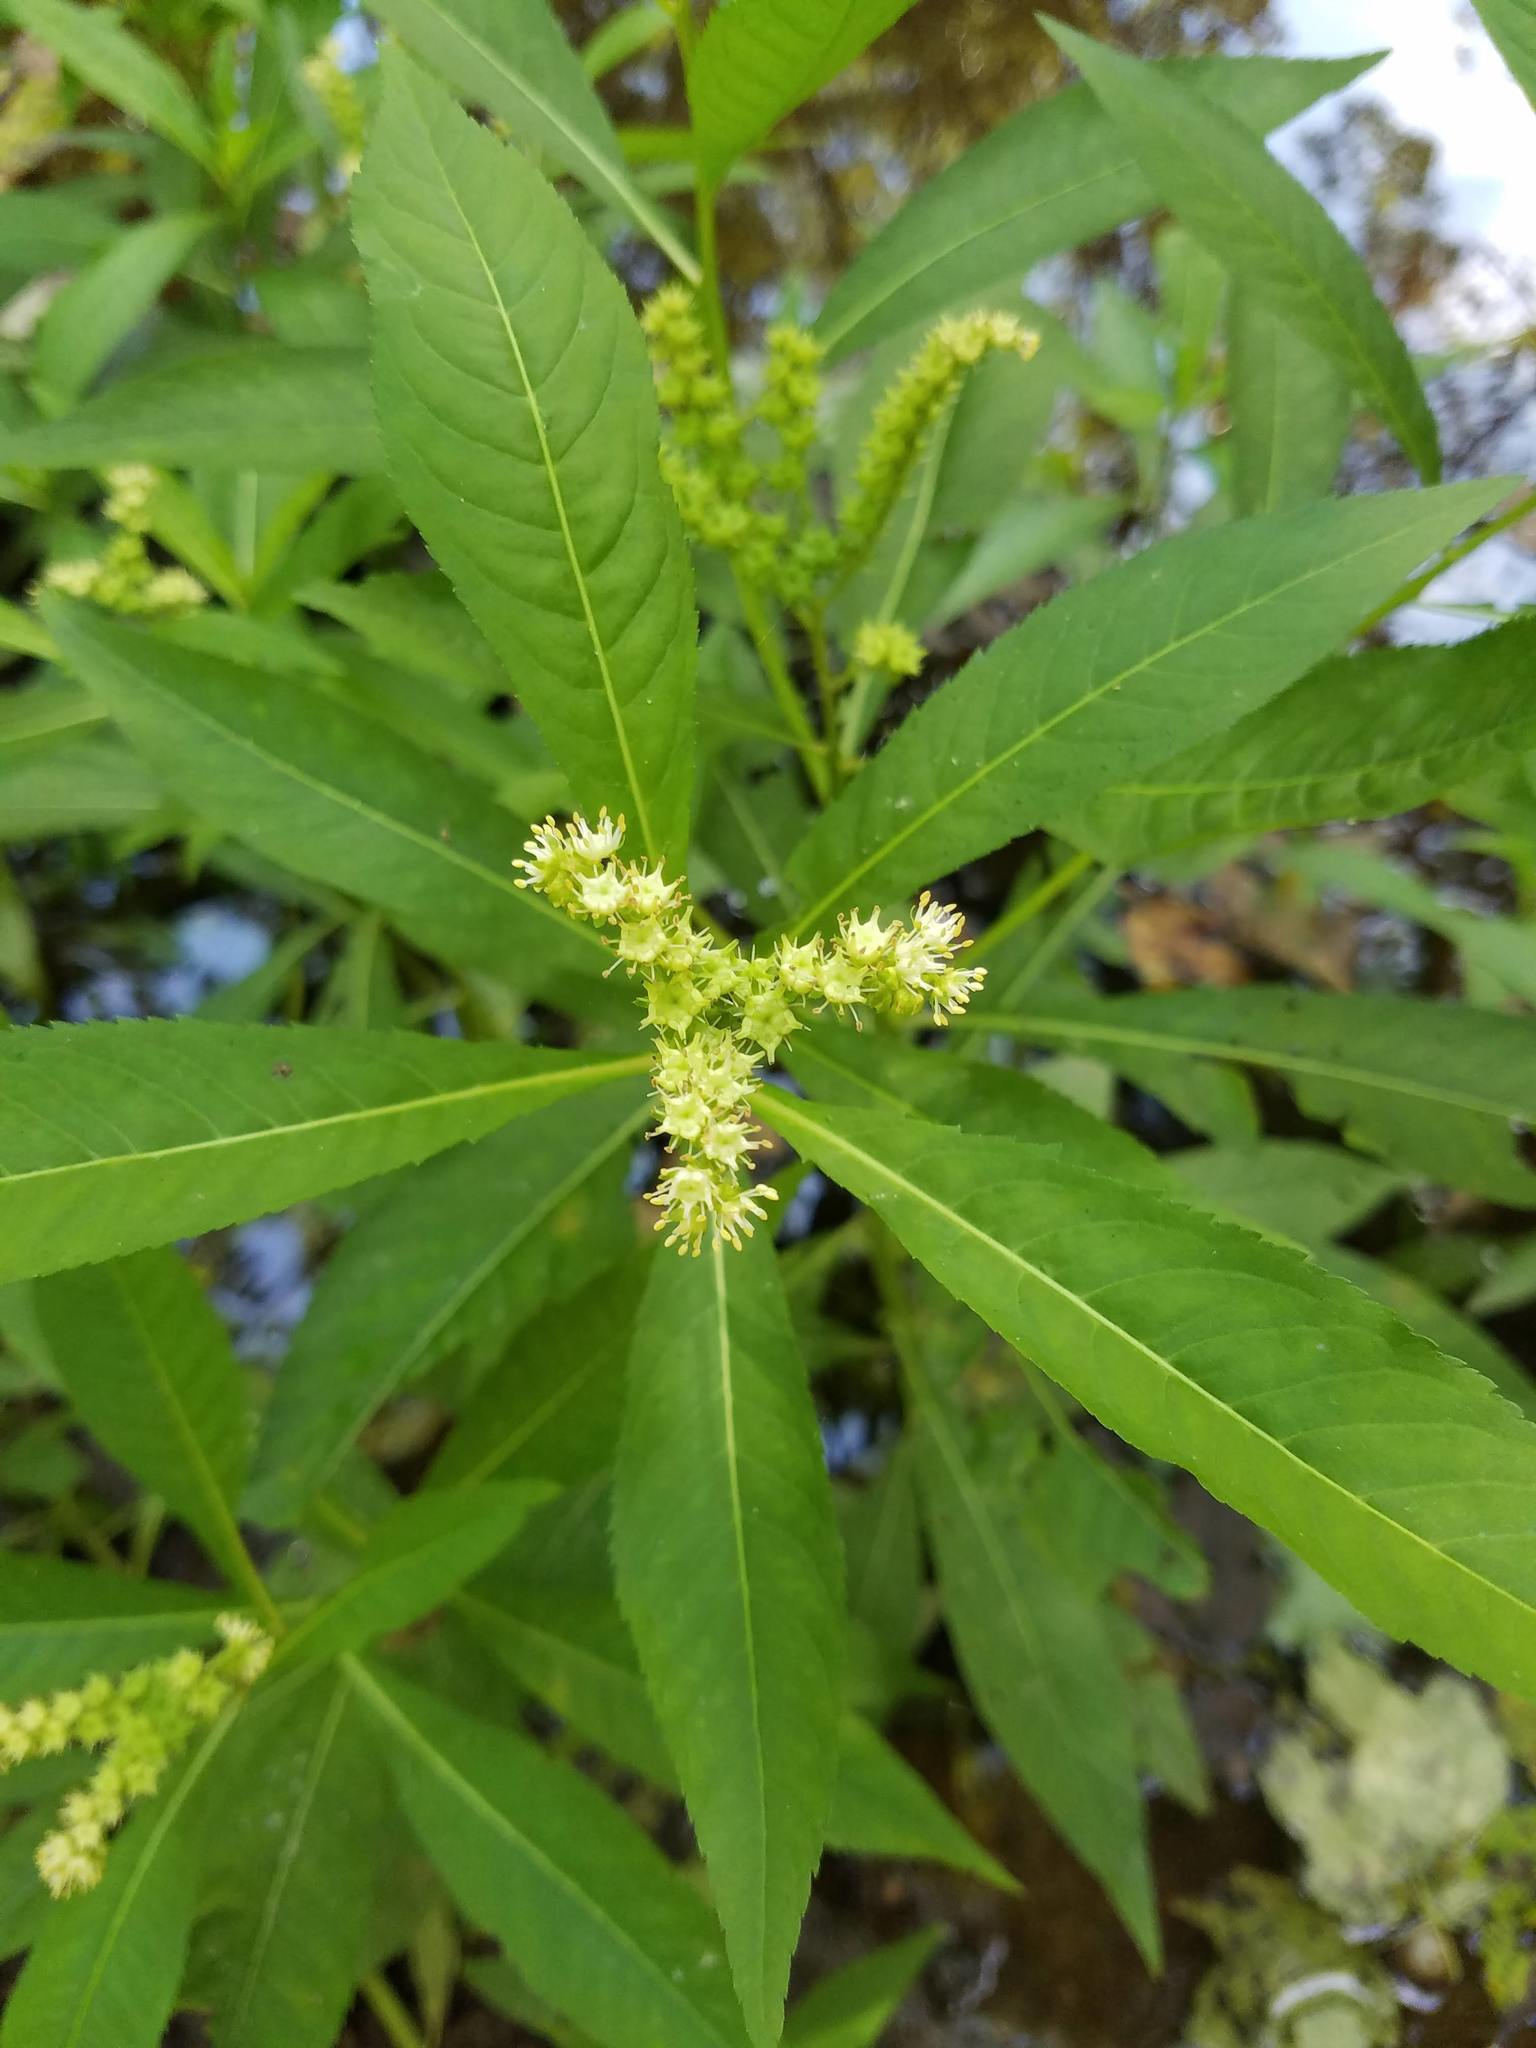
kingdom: Plantae
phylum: Tracheophyta
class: Magnoliopsida
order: Saxifragales
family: Penthoraceae
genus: Penthorum
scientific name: Penthorum sedoides
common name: Ditch stonecrop
